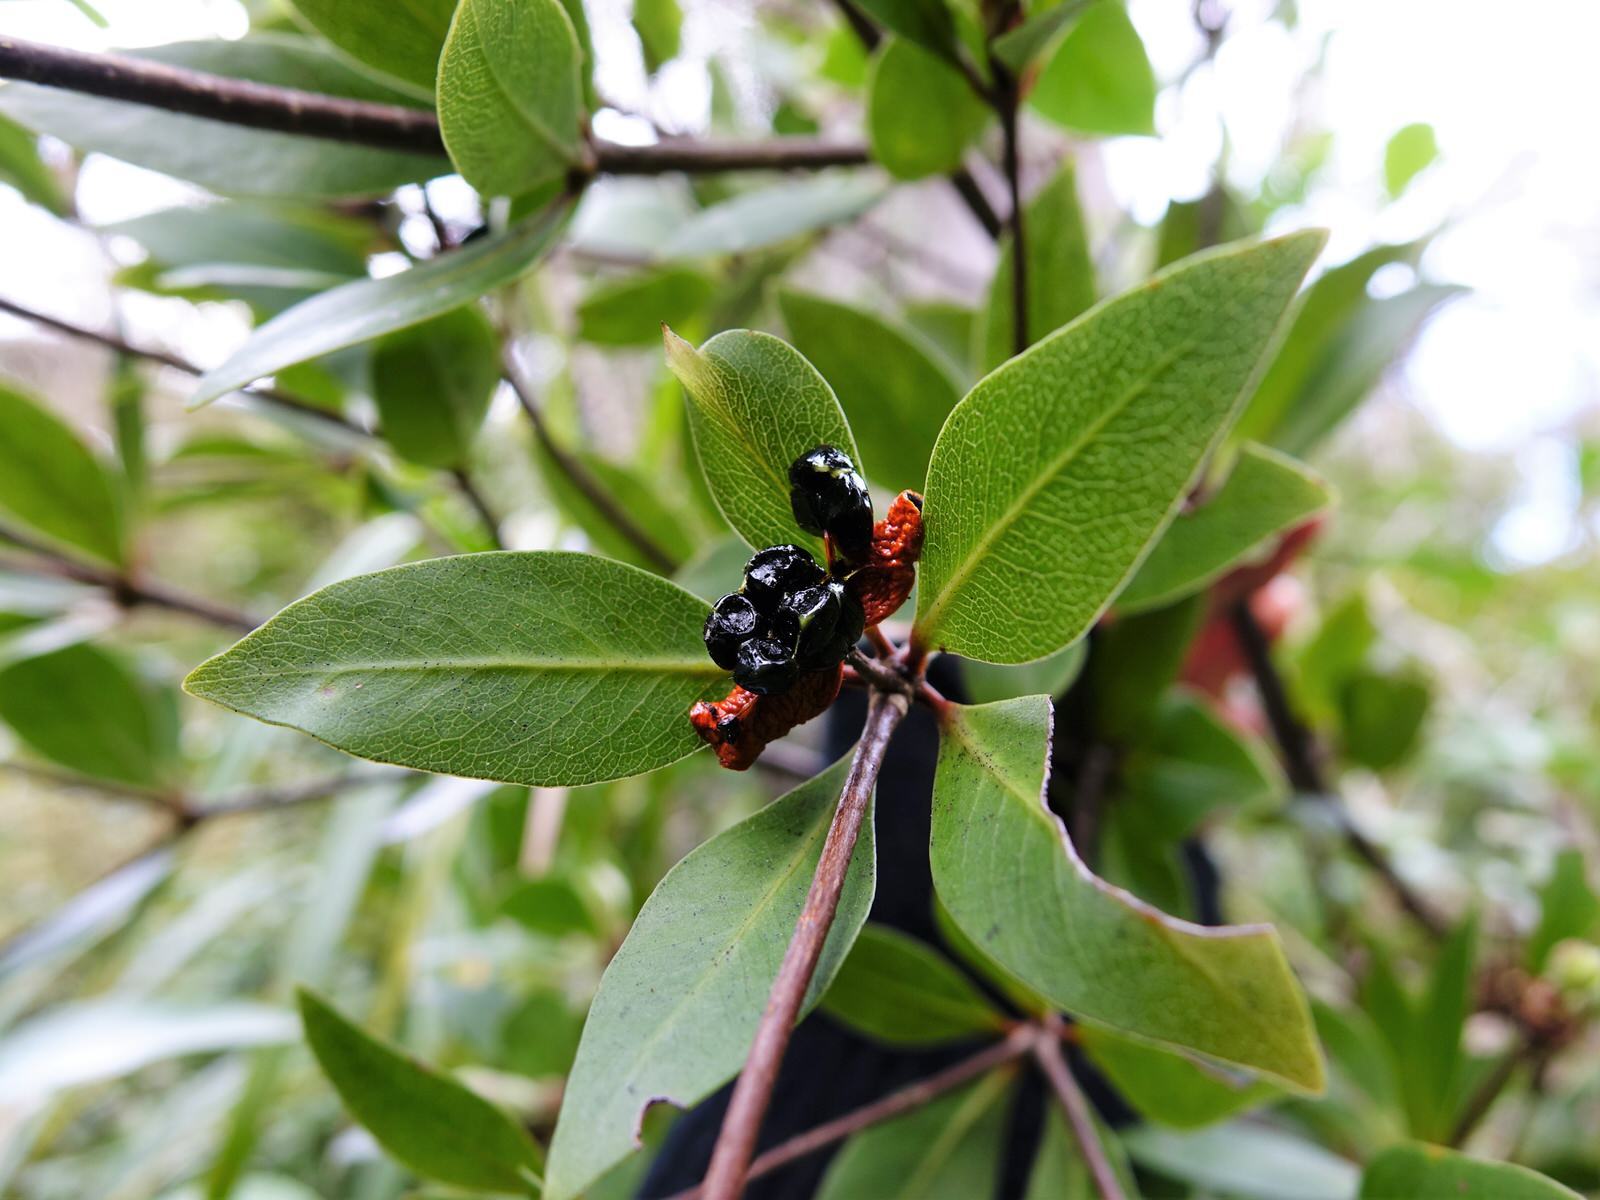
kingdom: Plantae
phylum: Tracheophyta
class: Magnoliopsida
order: Apiales
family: Pittosporaceae
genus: Pittosporum
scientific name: Pittosporum cornifolium
